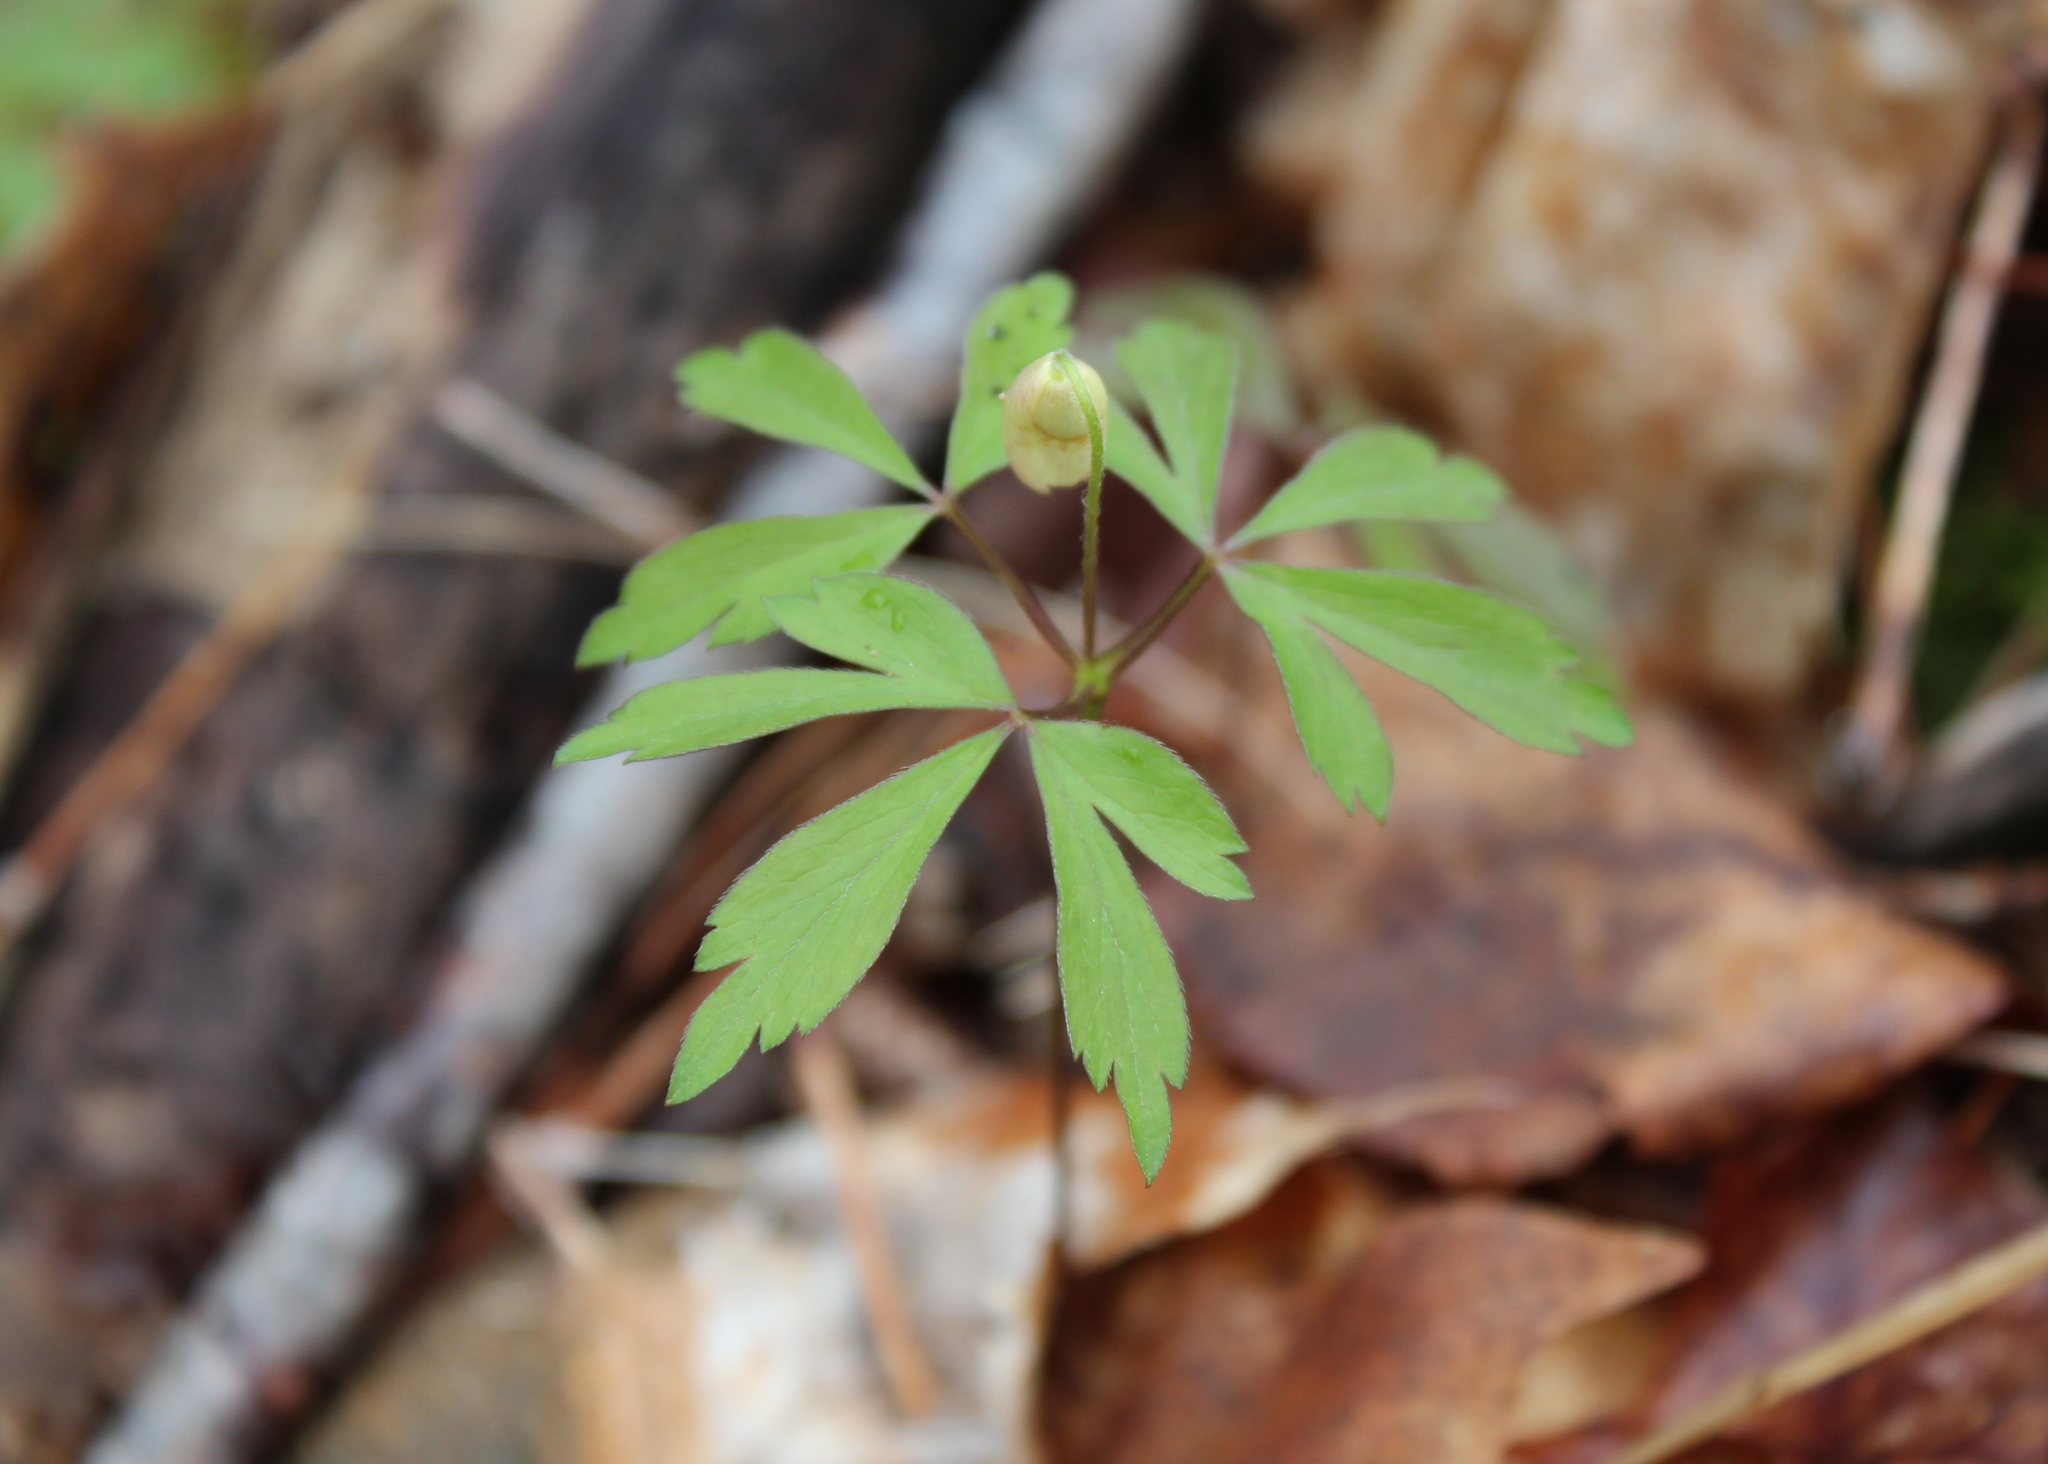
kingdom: Plantae
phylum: Tracheophyta
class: Magnoliopsida
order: Ranunculales
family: Ranunculaceae
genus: Anemone
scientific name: Anemone quinquefolia
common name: Wood anemone
